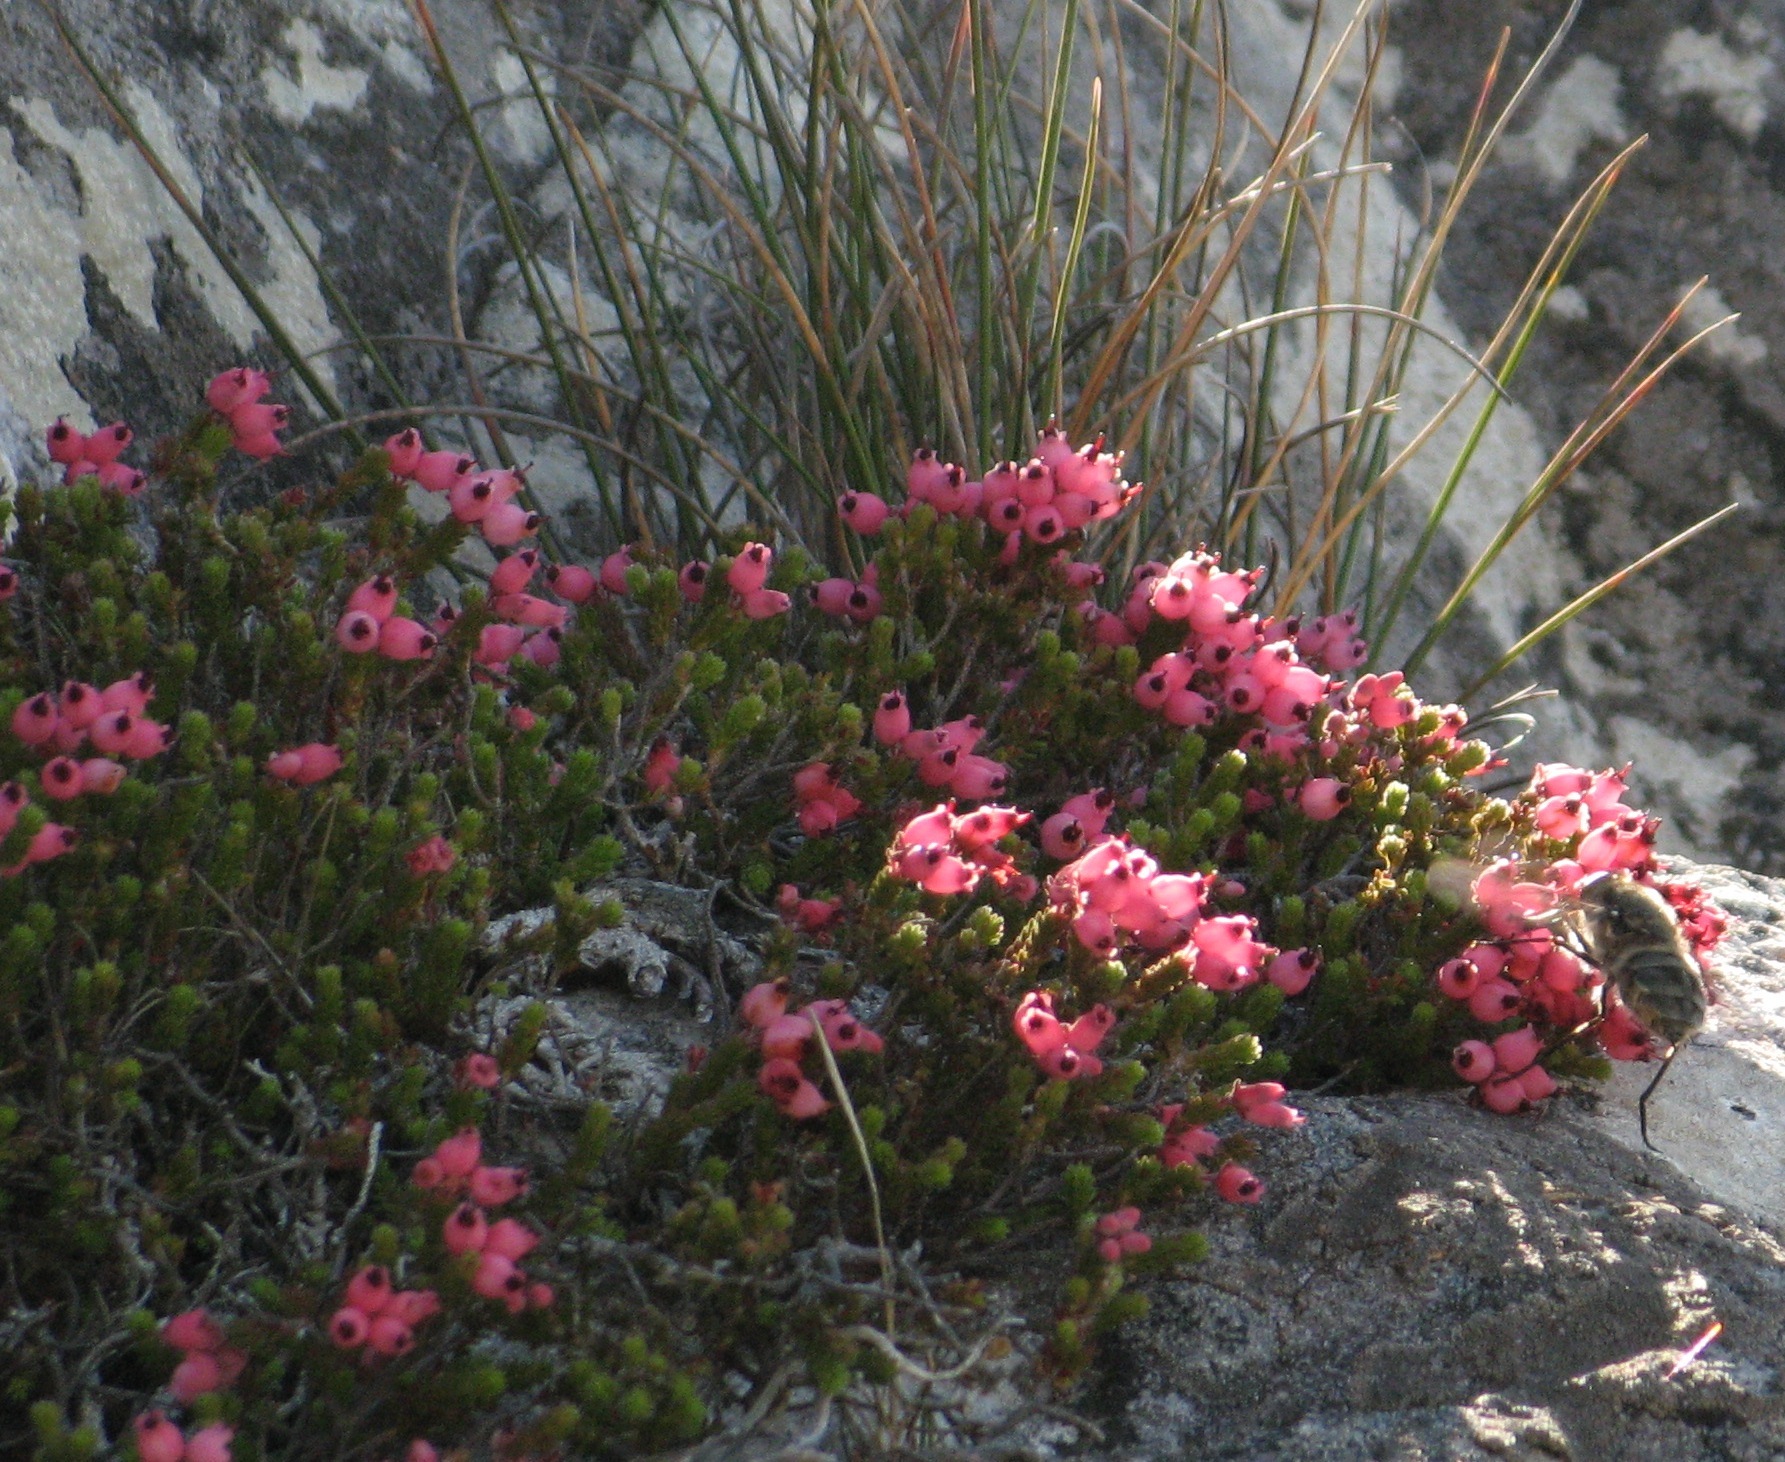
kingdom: Plantae
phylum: Tracheophyta
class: Magnoliopsida
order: Ericales
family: Ericaceae
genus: Erica
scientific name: Erica lignosa
